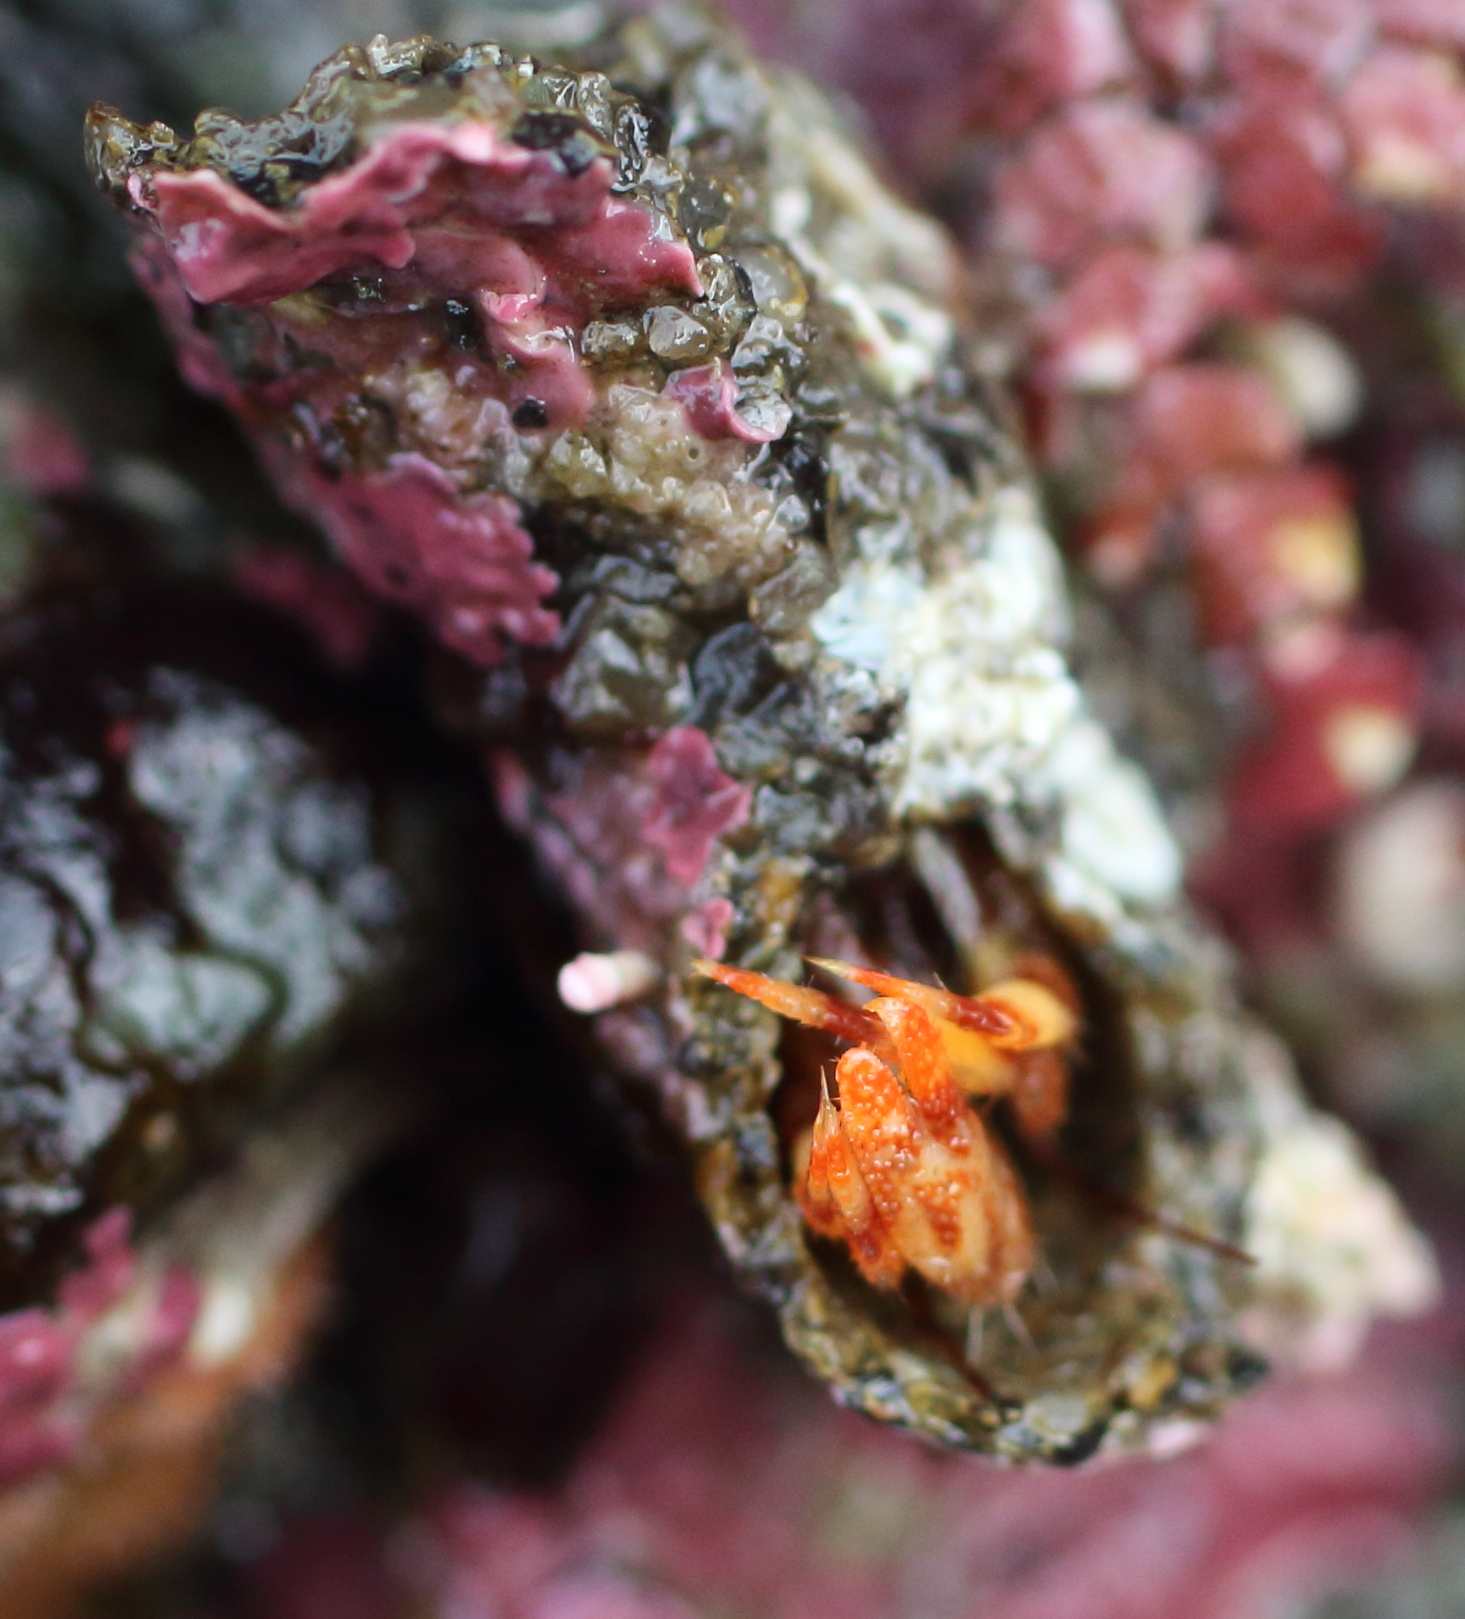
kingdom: Animalia
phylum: Arthropoda
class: Malacostraca
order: Decapoda
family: Paguridae
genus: Discorsopagurus
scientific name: Discorsopagurus schmitti
